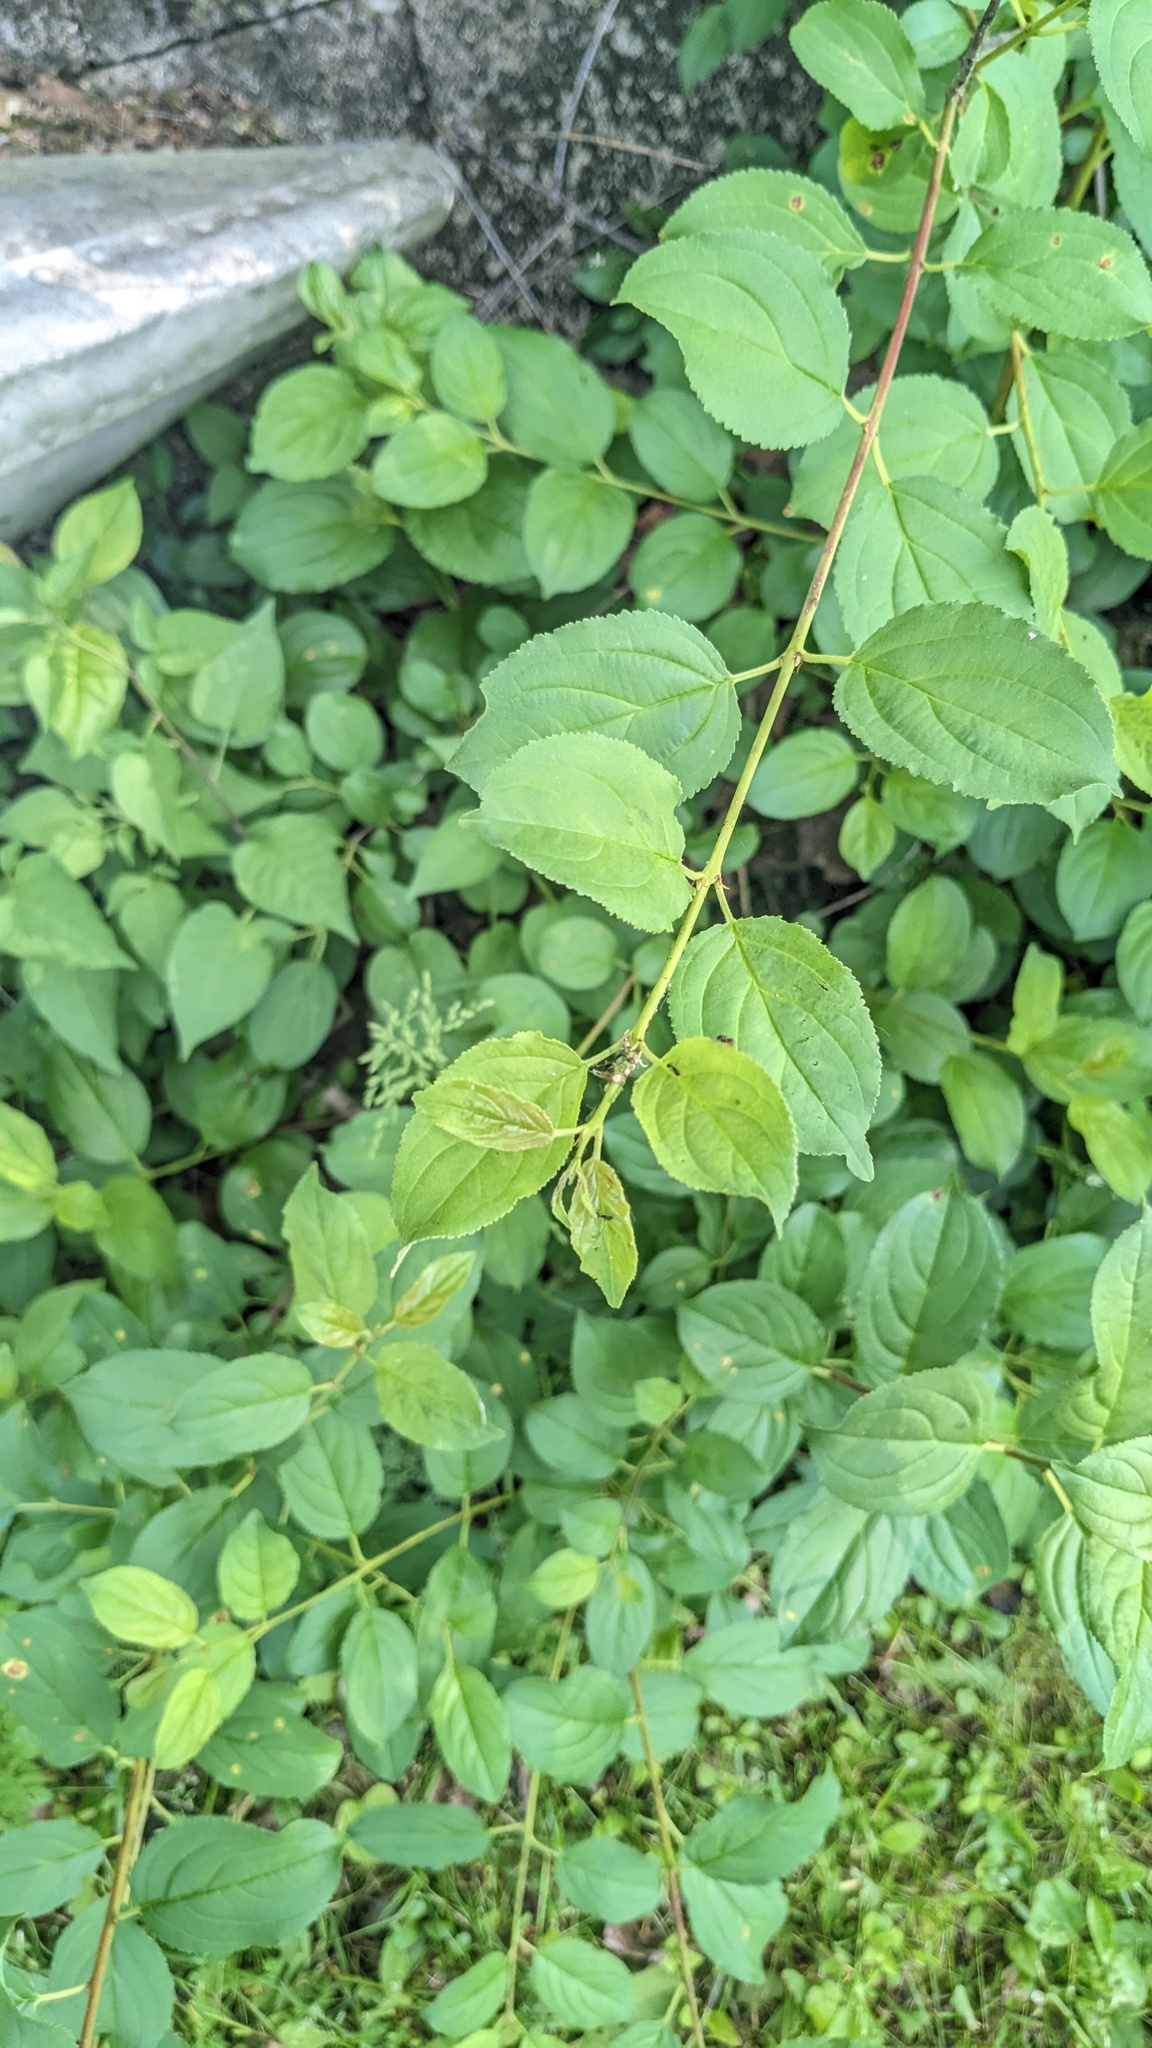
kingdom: Plantae
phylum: Tracheophyta
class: Magnoliopsida
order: Rosales
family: Rhamnaceae
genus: Rhamnus
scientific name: Rhamnus cathartica
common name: Common buckthorn
